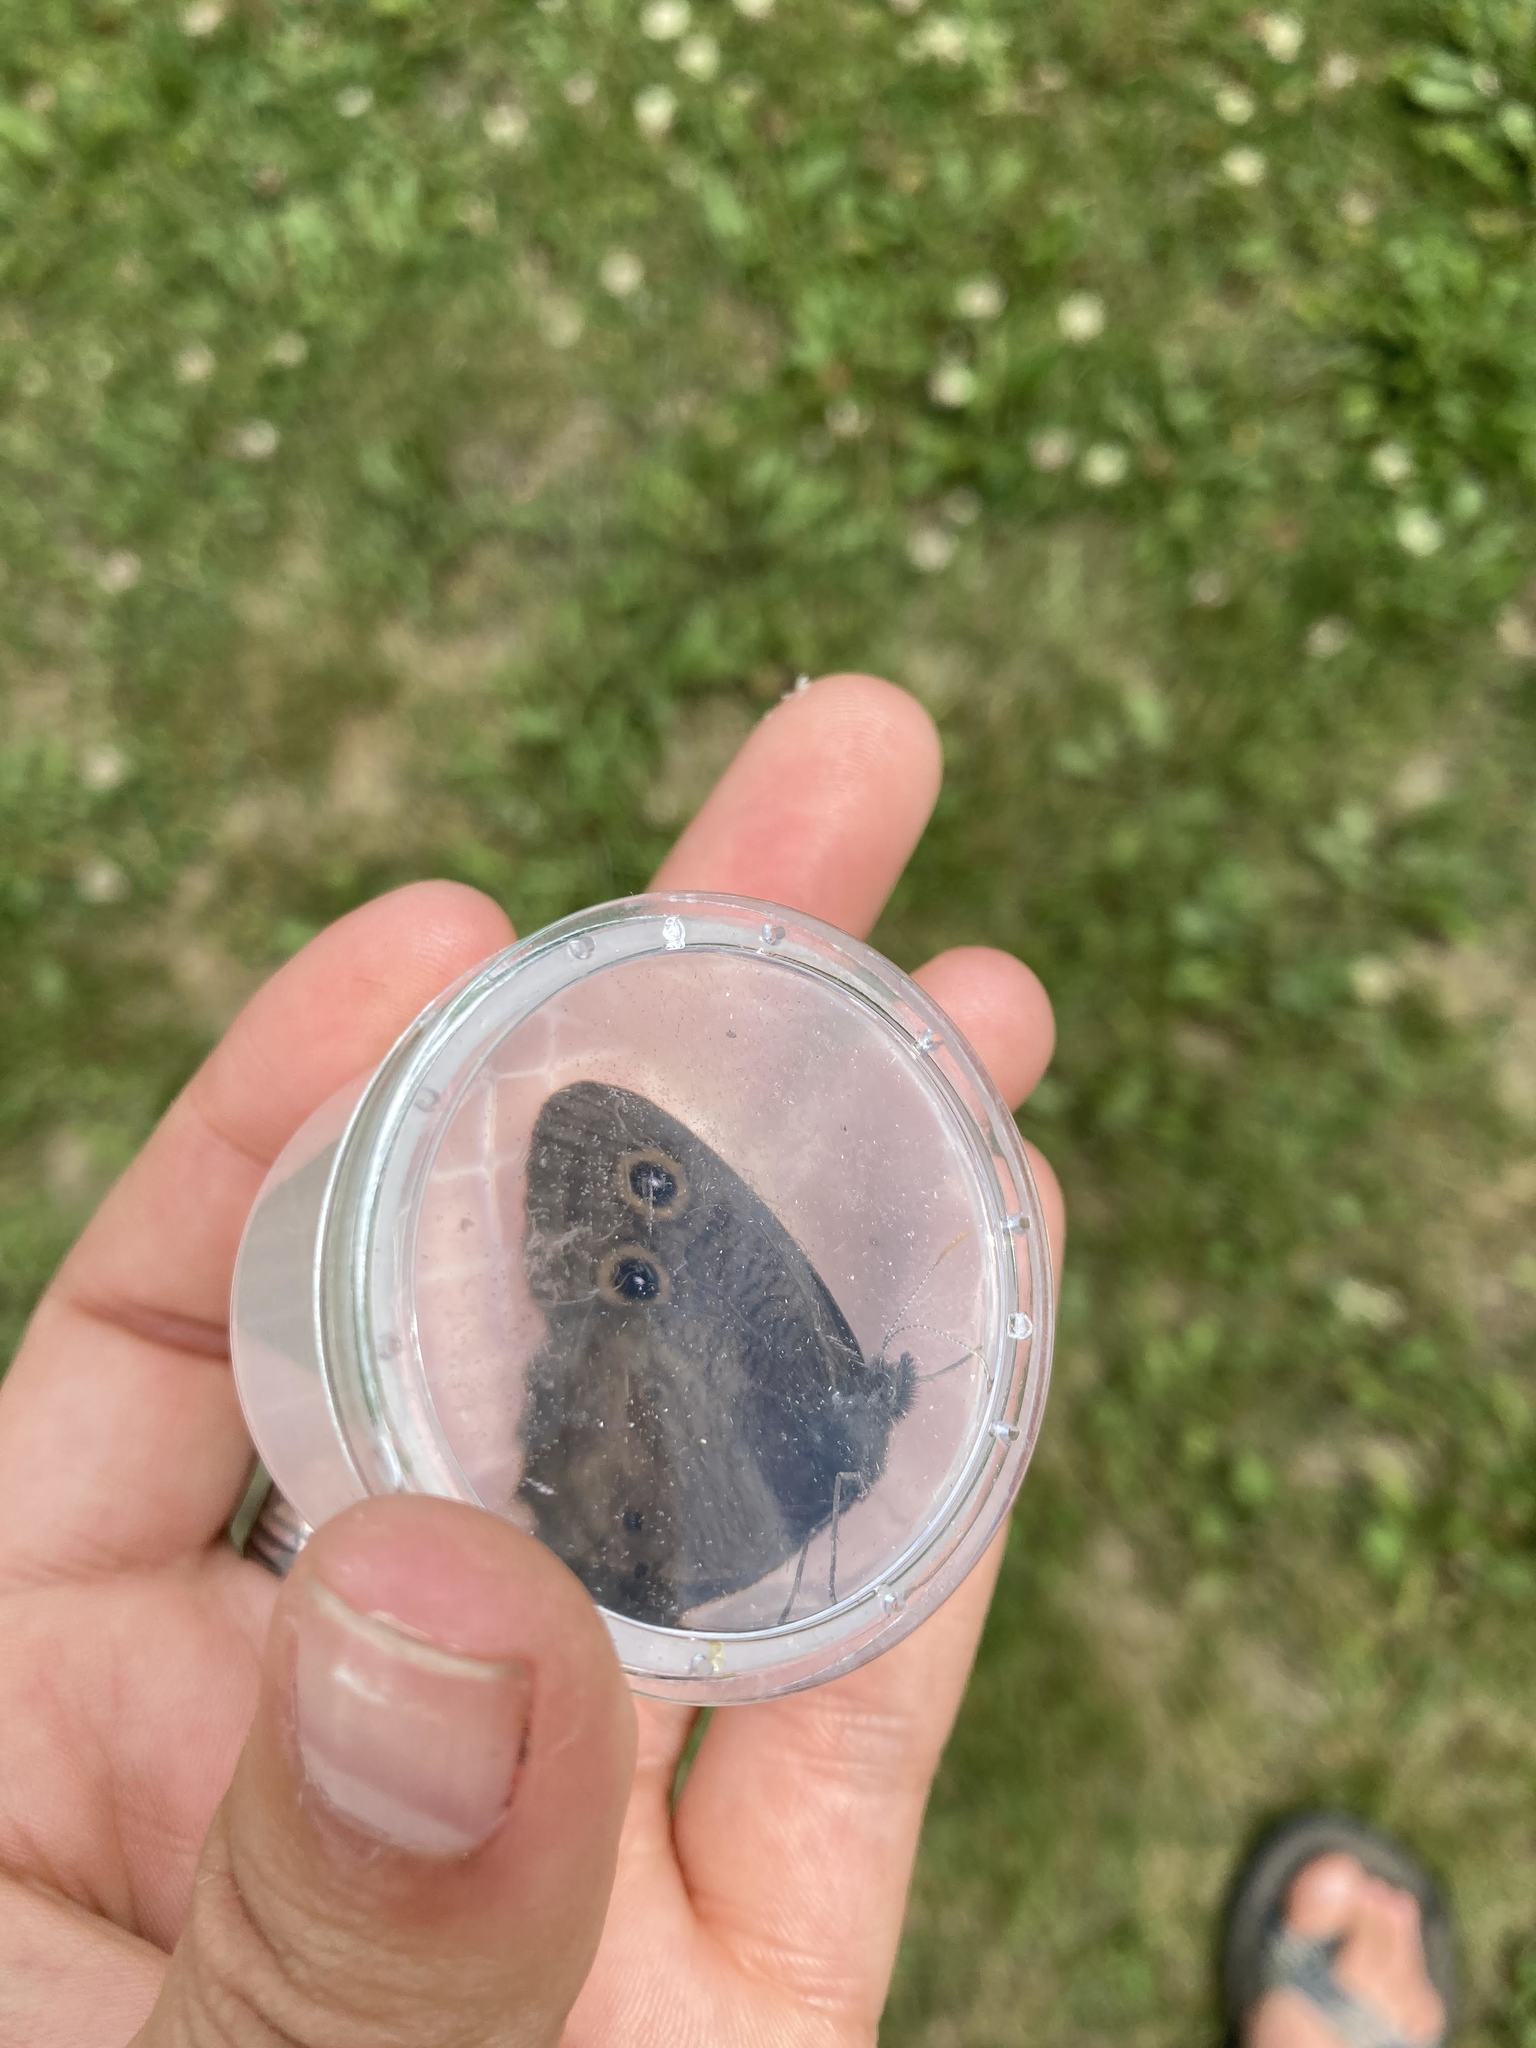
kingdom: Animalia
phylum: Arthropoda
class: Insecta
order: Lepidoptera
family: Nymphalidae
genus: Cercyonis
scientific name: Cercyonis pegala
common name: Common wood-nymph
